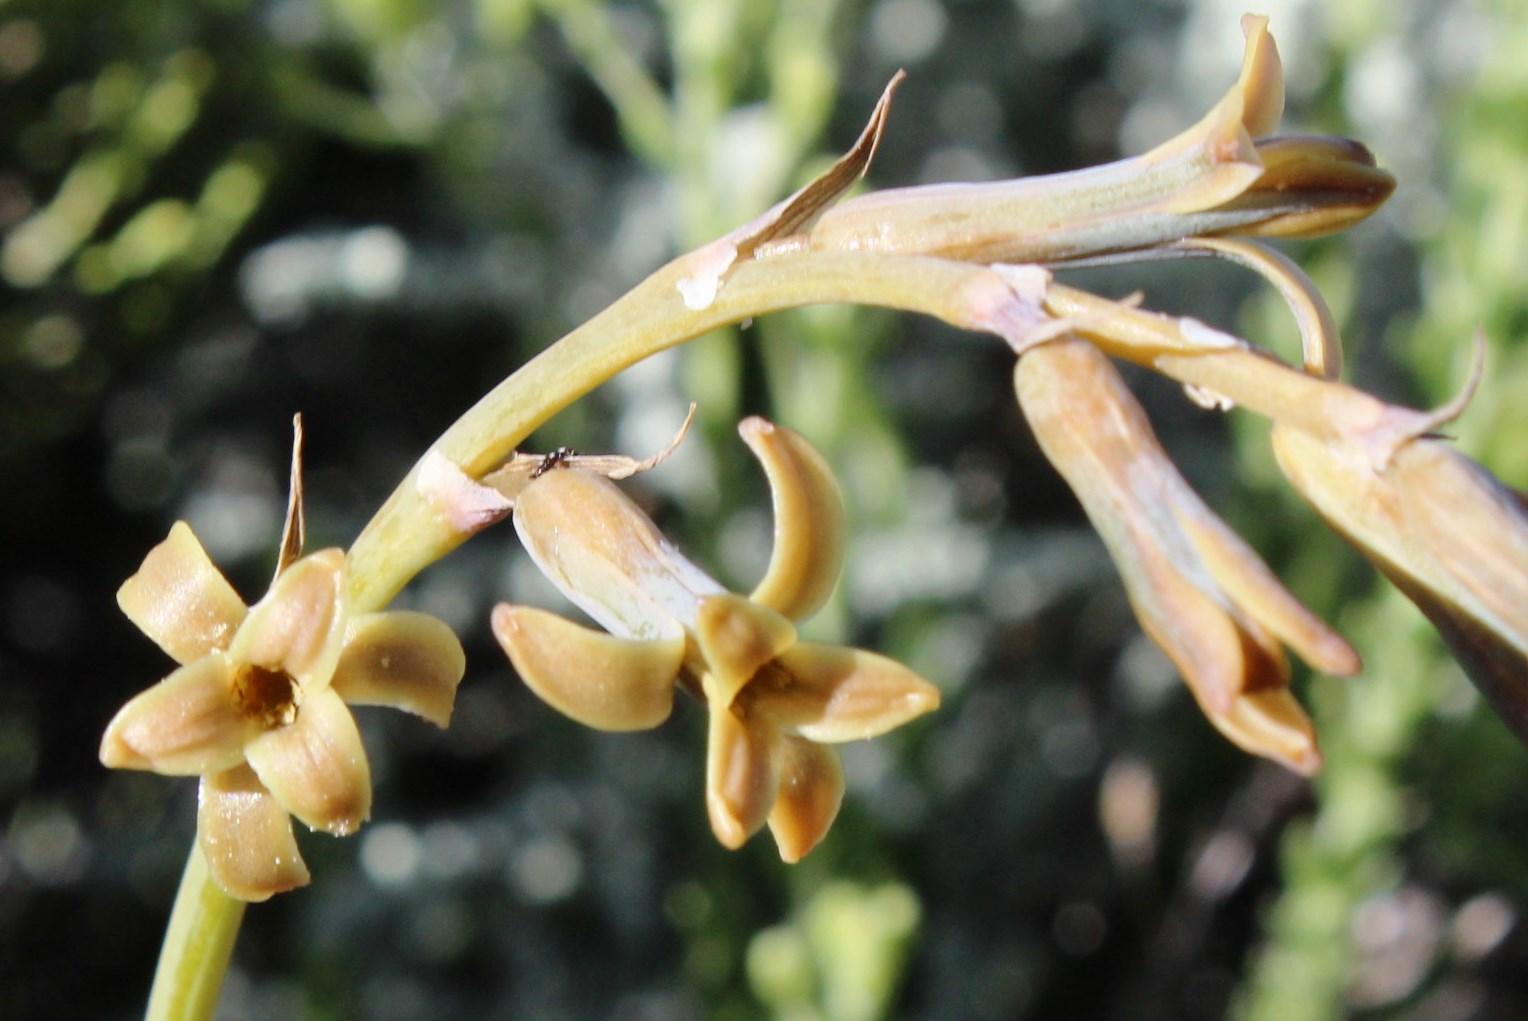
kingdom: Plantae
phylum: Tracheophyta
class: Liliopsida
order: Asparagales
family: Asparagaceae
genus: Dipcadi
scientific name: Dipcadi brevifolium
